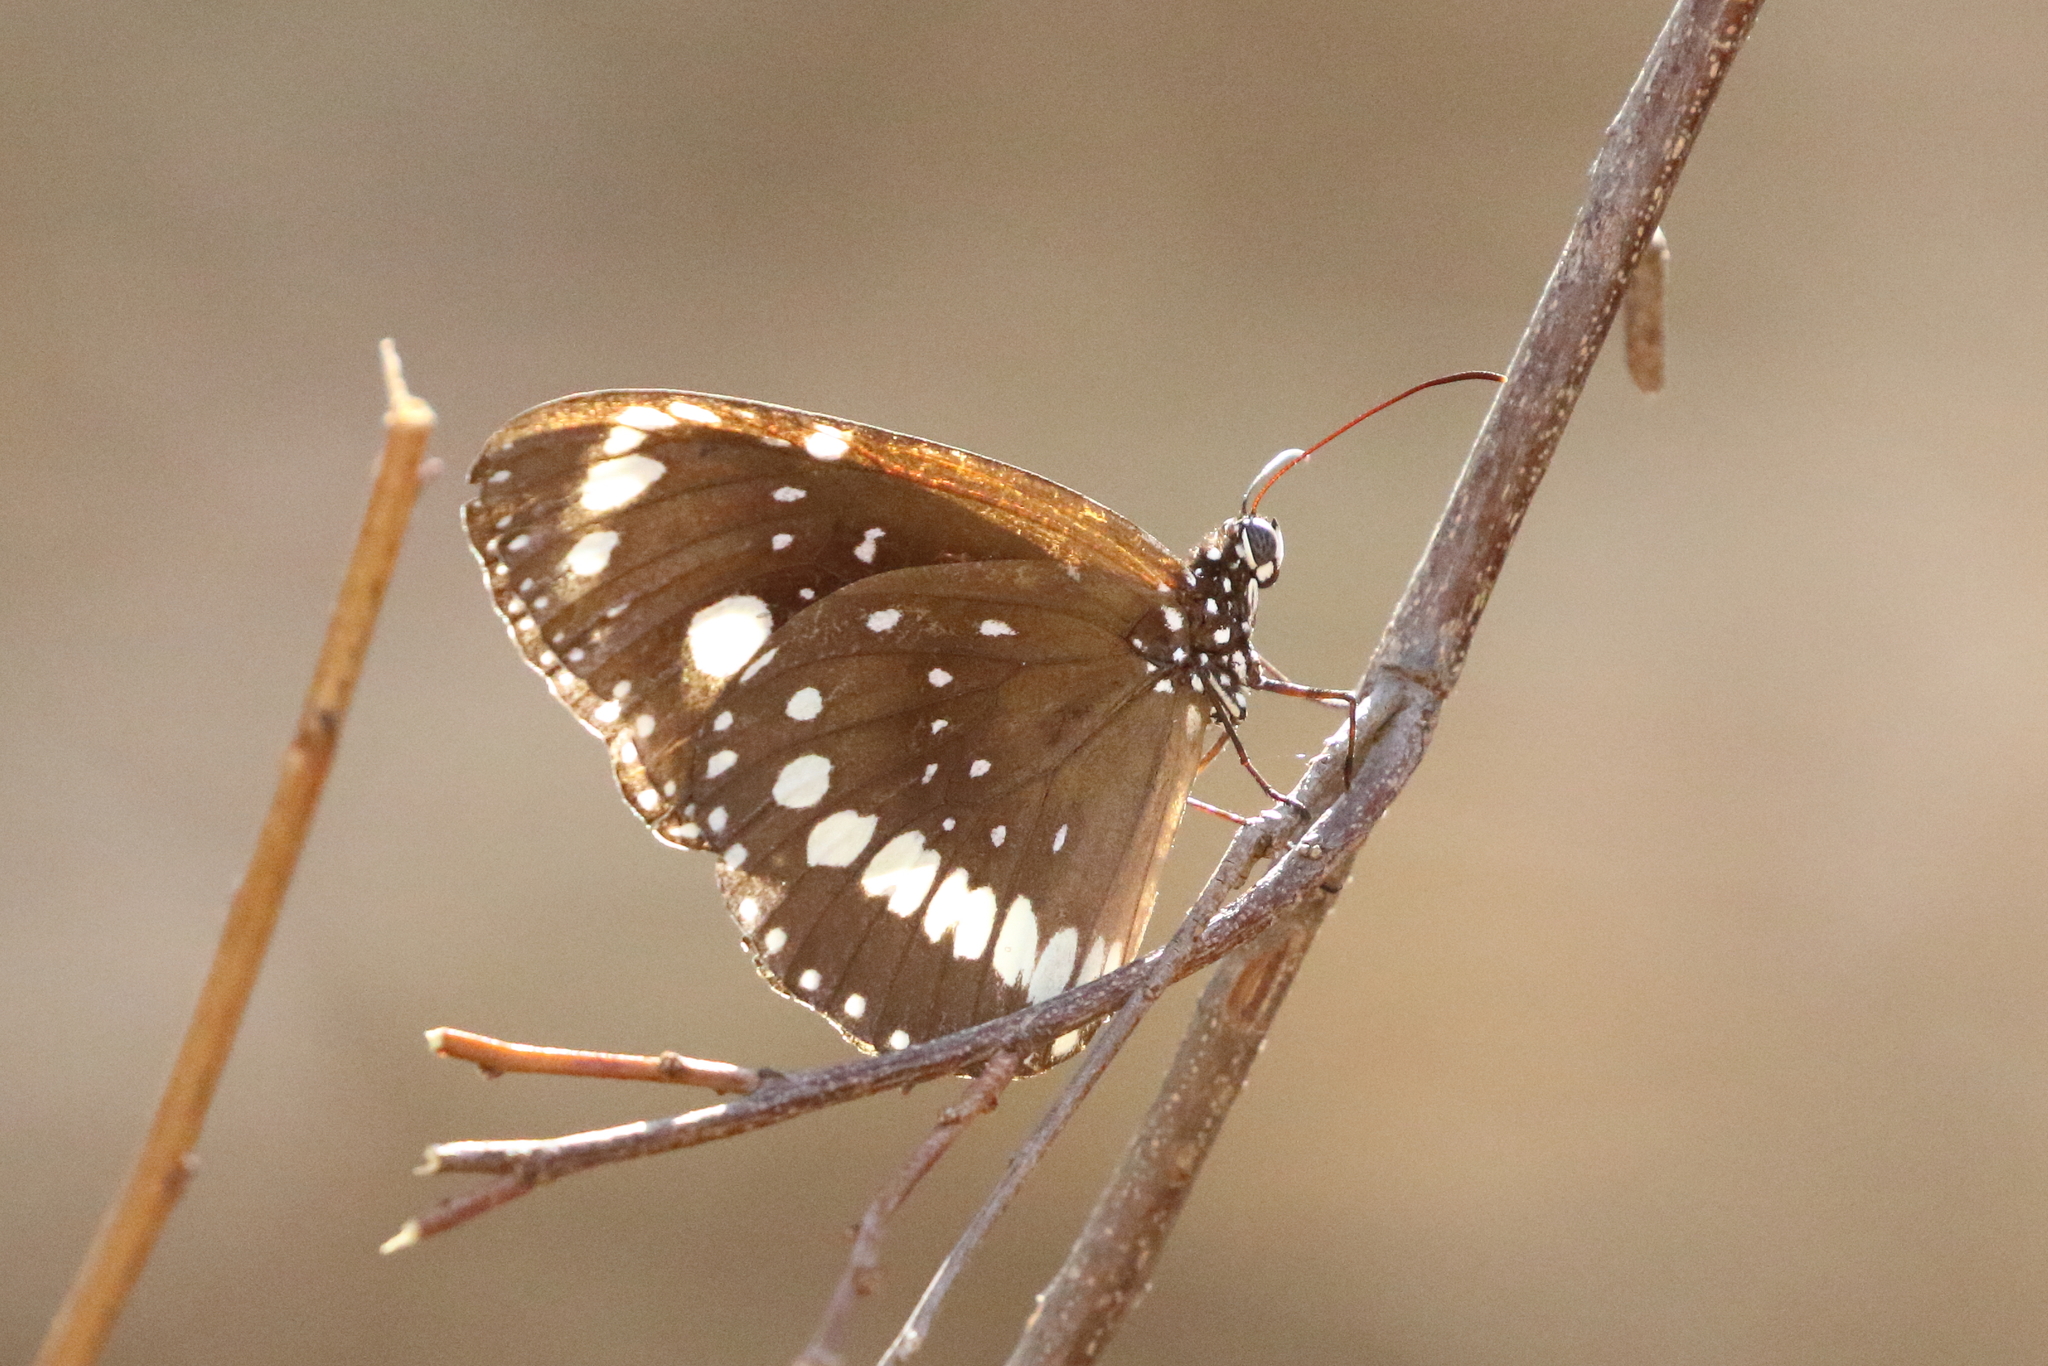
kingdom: Animalia
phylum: Arthropoda
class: Insecta
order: Lepidoptera
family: Nymphalidae
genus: Euploea
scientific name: Euploea core
